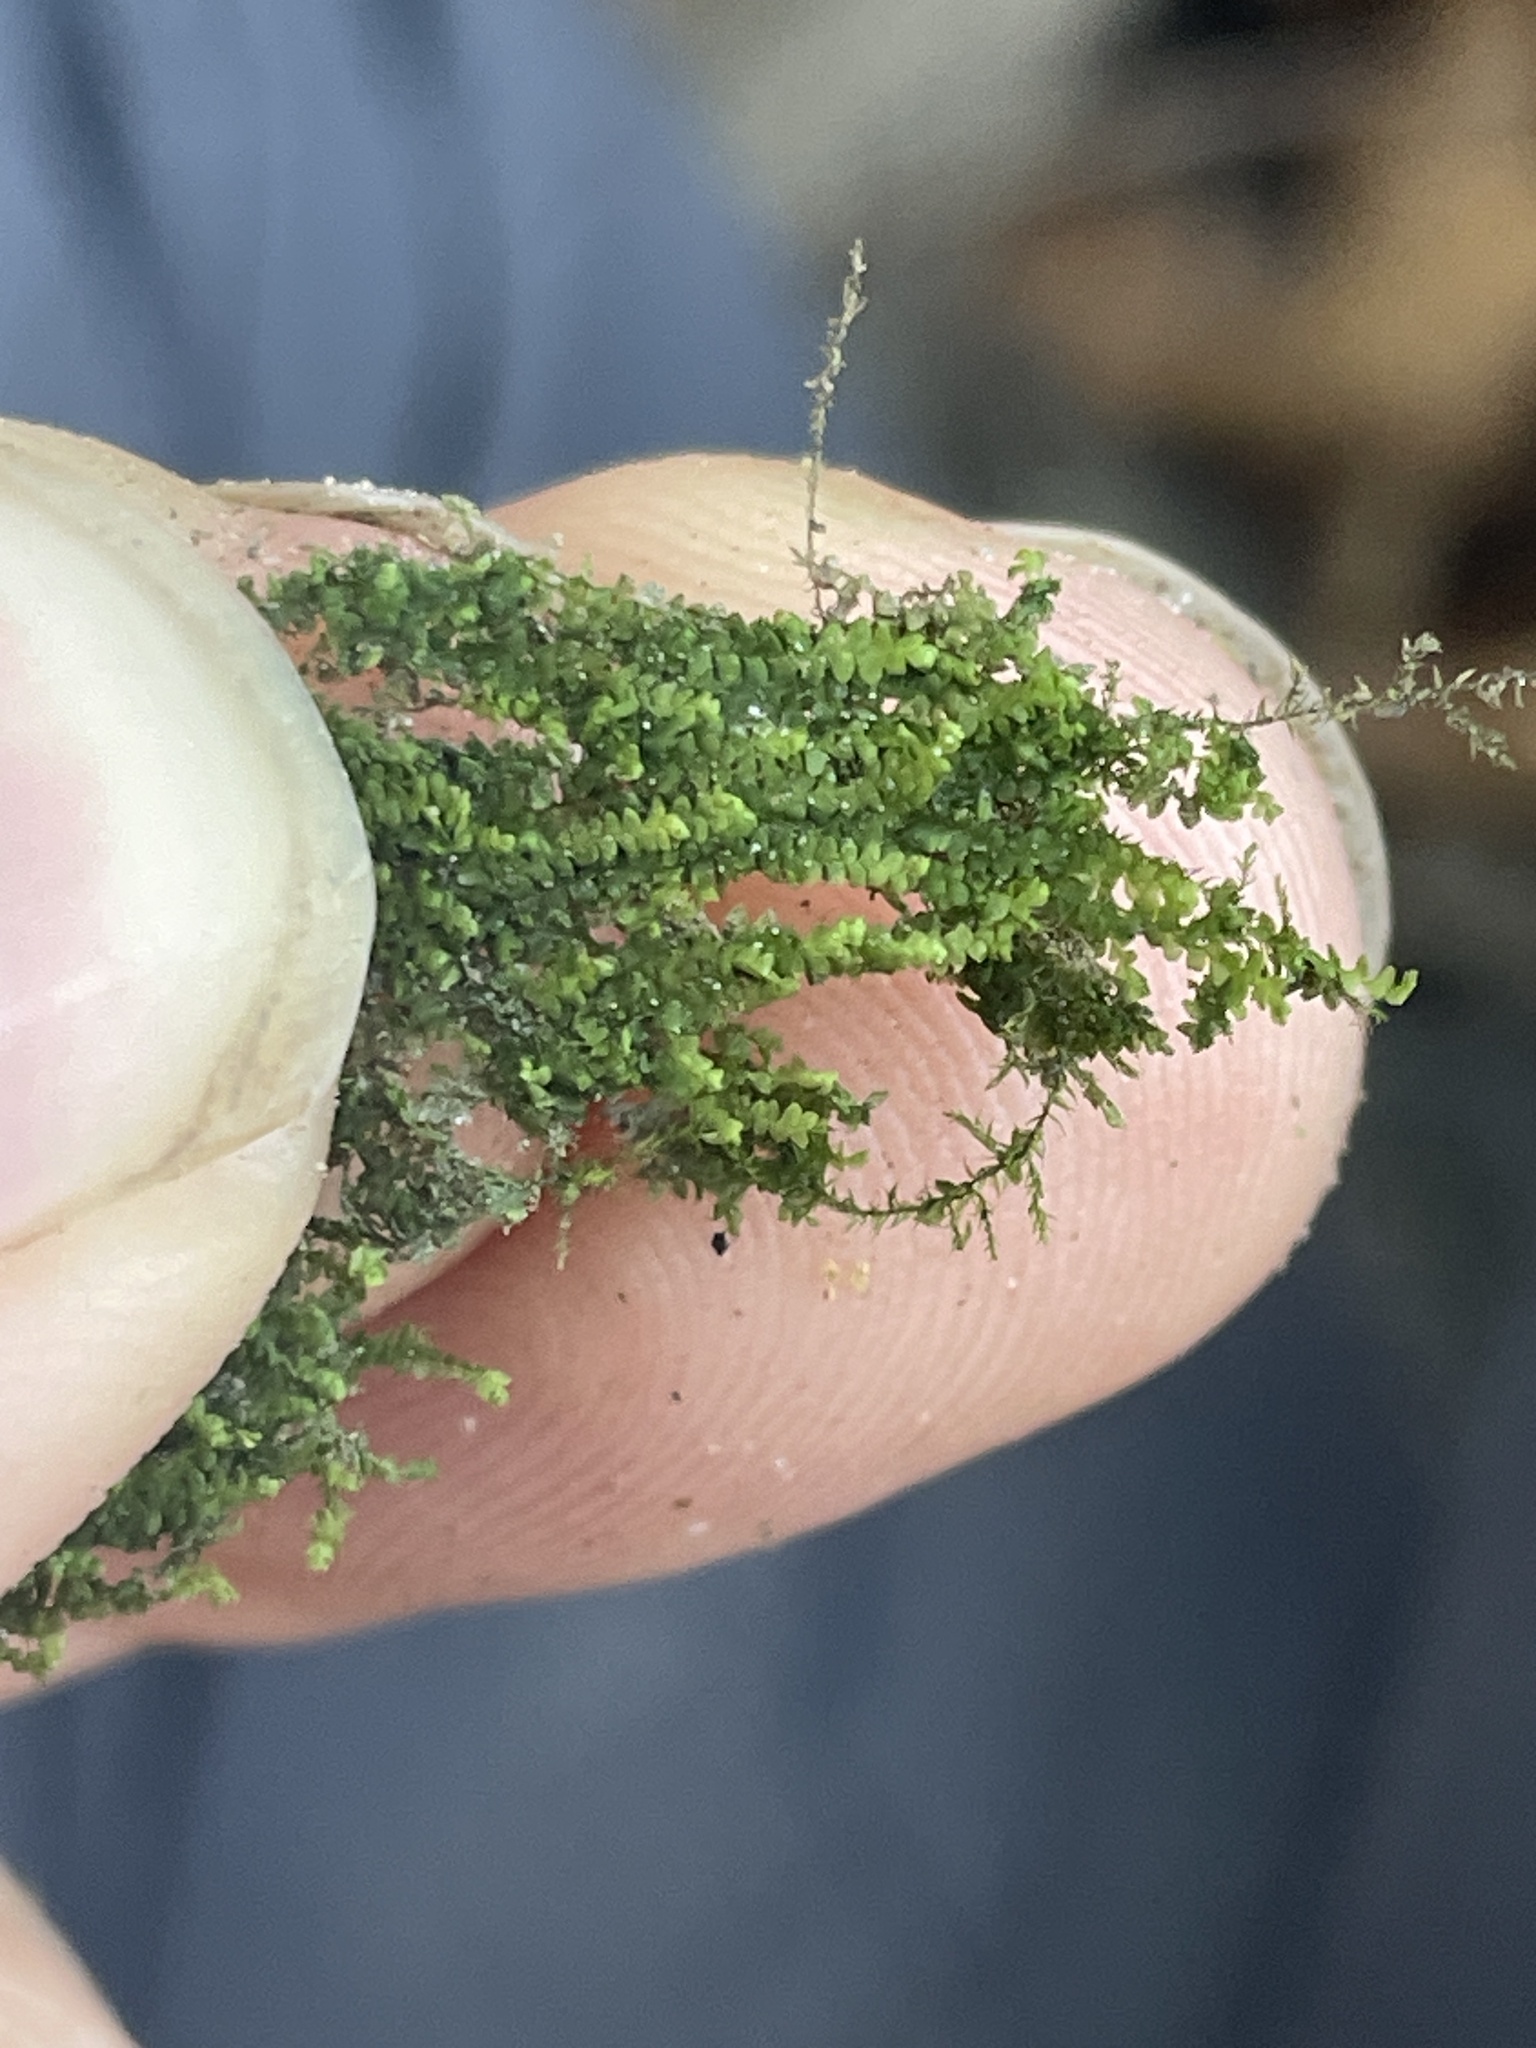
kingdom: Plantae
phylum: Marchantiophyta
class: Jungermanniopsida
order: Jungermanniales
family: Calypogeiaceae
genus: Calypogeia
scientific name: Calypogeia neogaea
